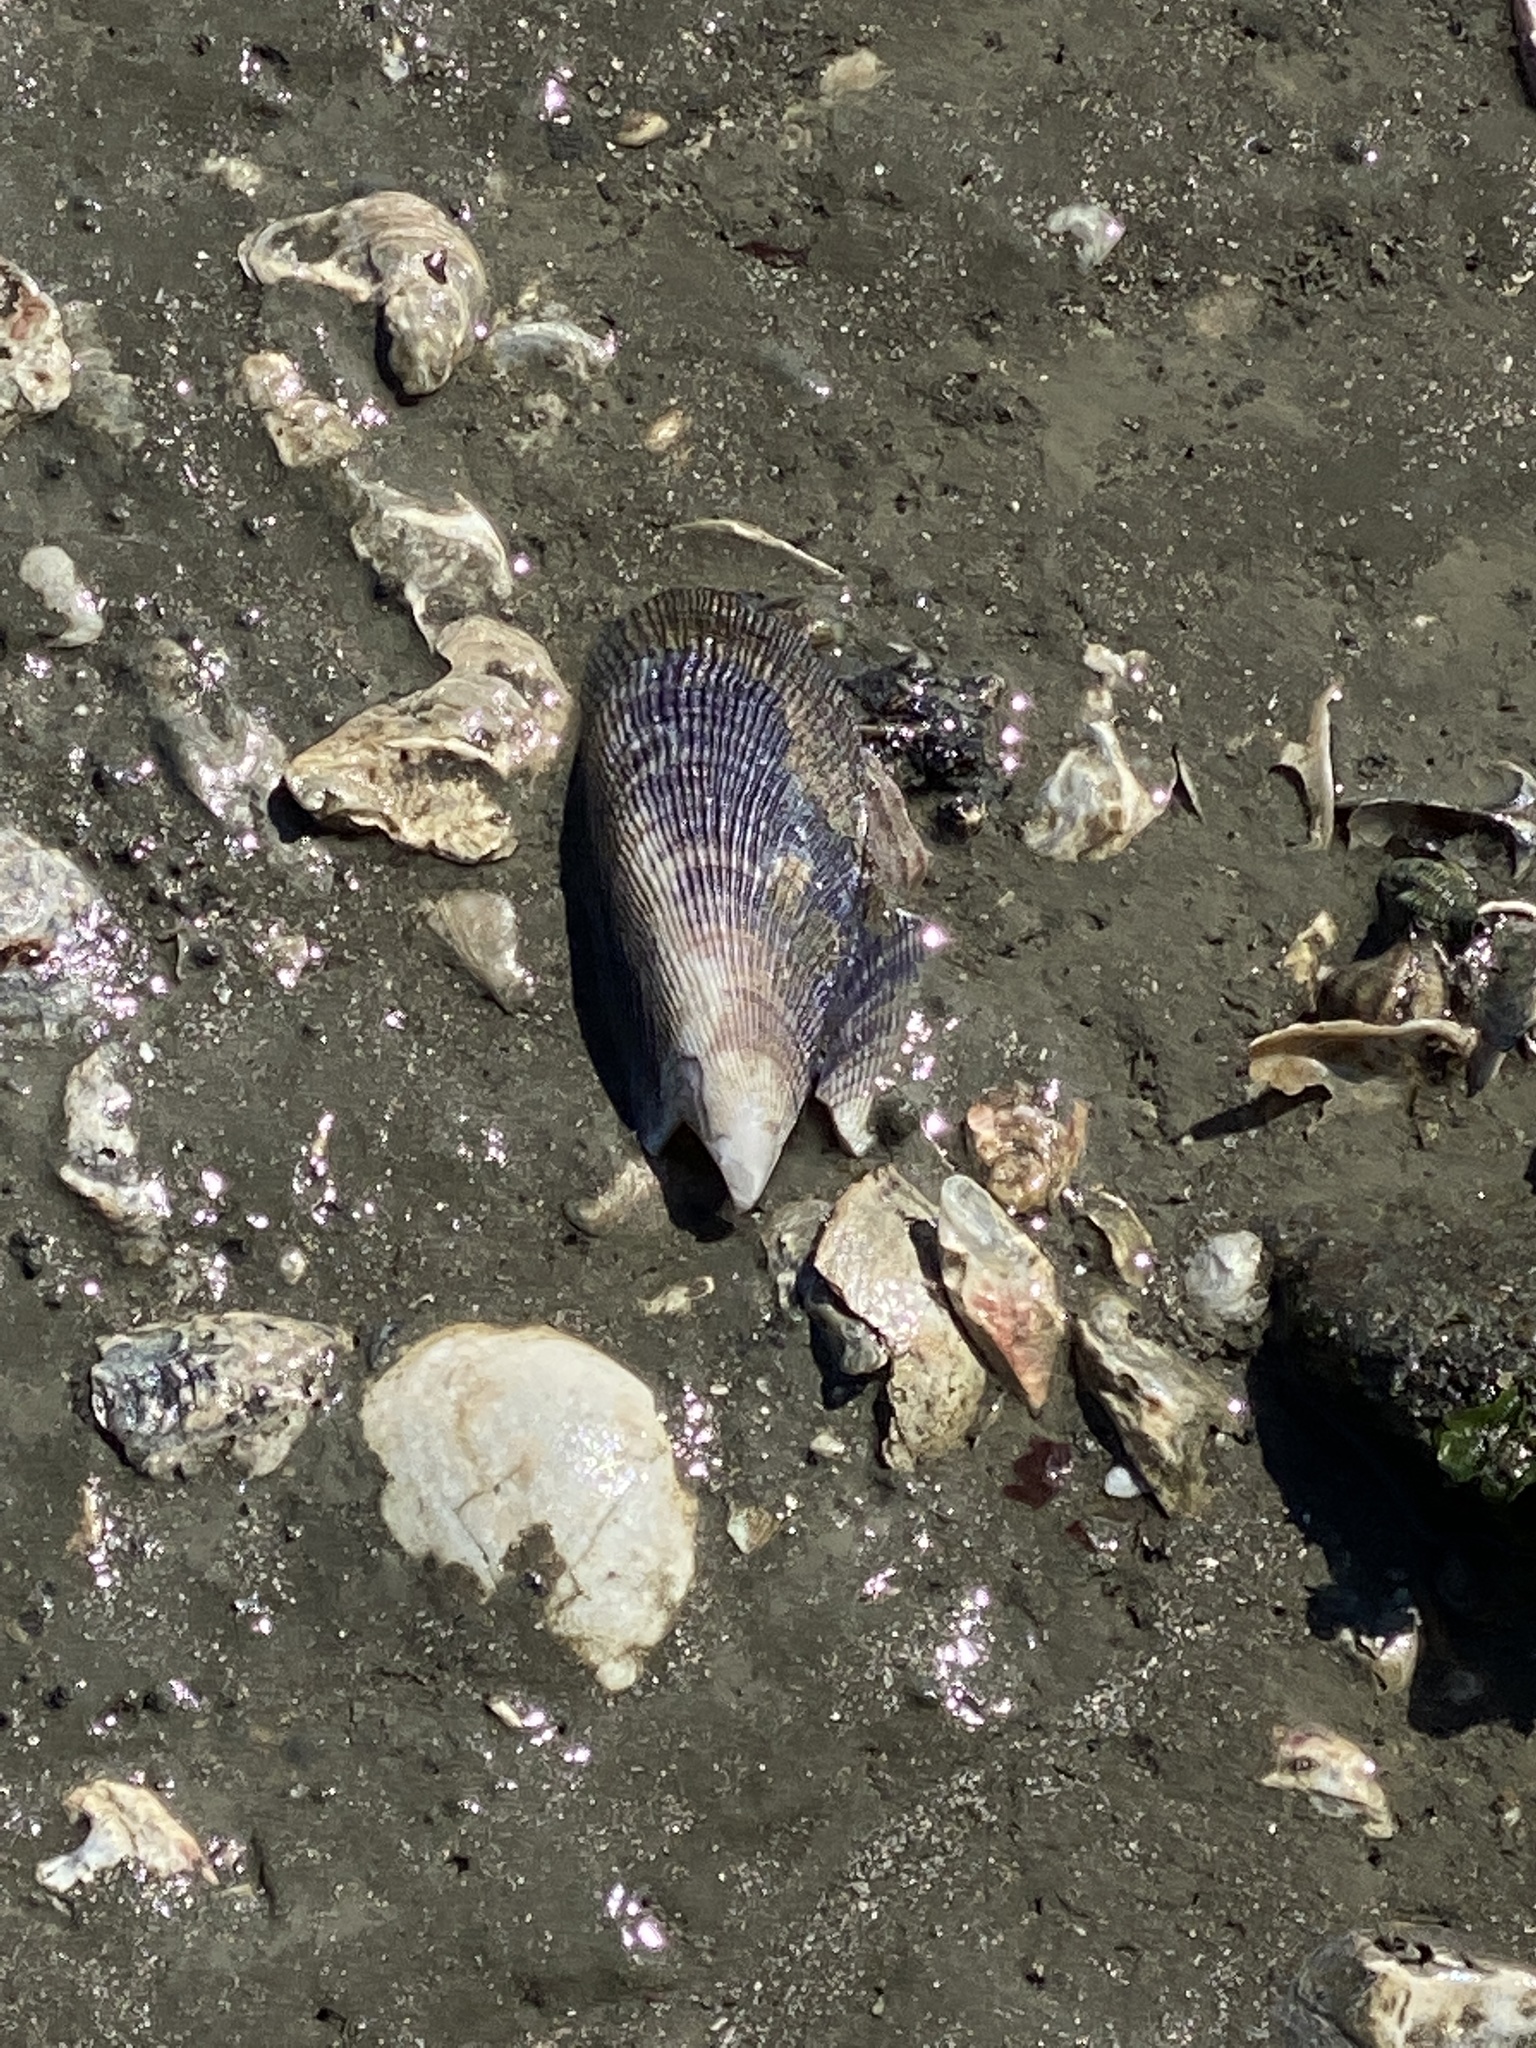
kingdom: Animalia
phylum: Mollusca
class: Bivalvia
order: Mytilida
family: Mytilidae
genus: Geukensia
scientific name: Geukensia demissa
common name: Ribbed mussel
